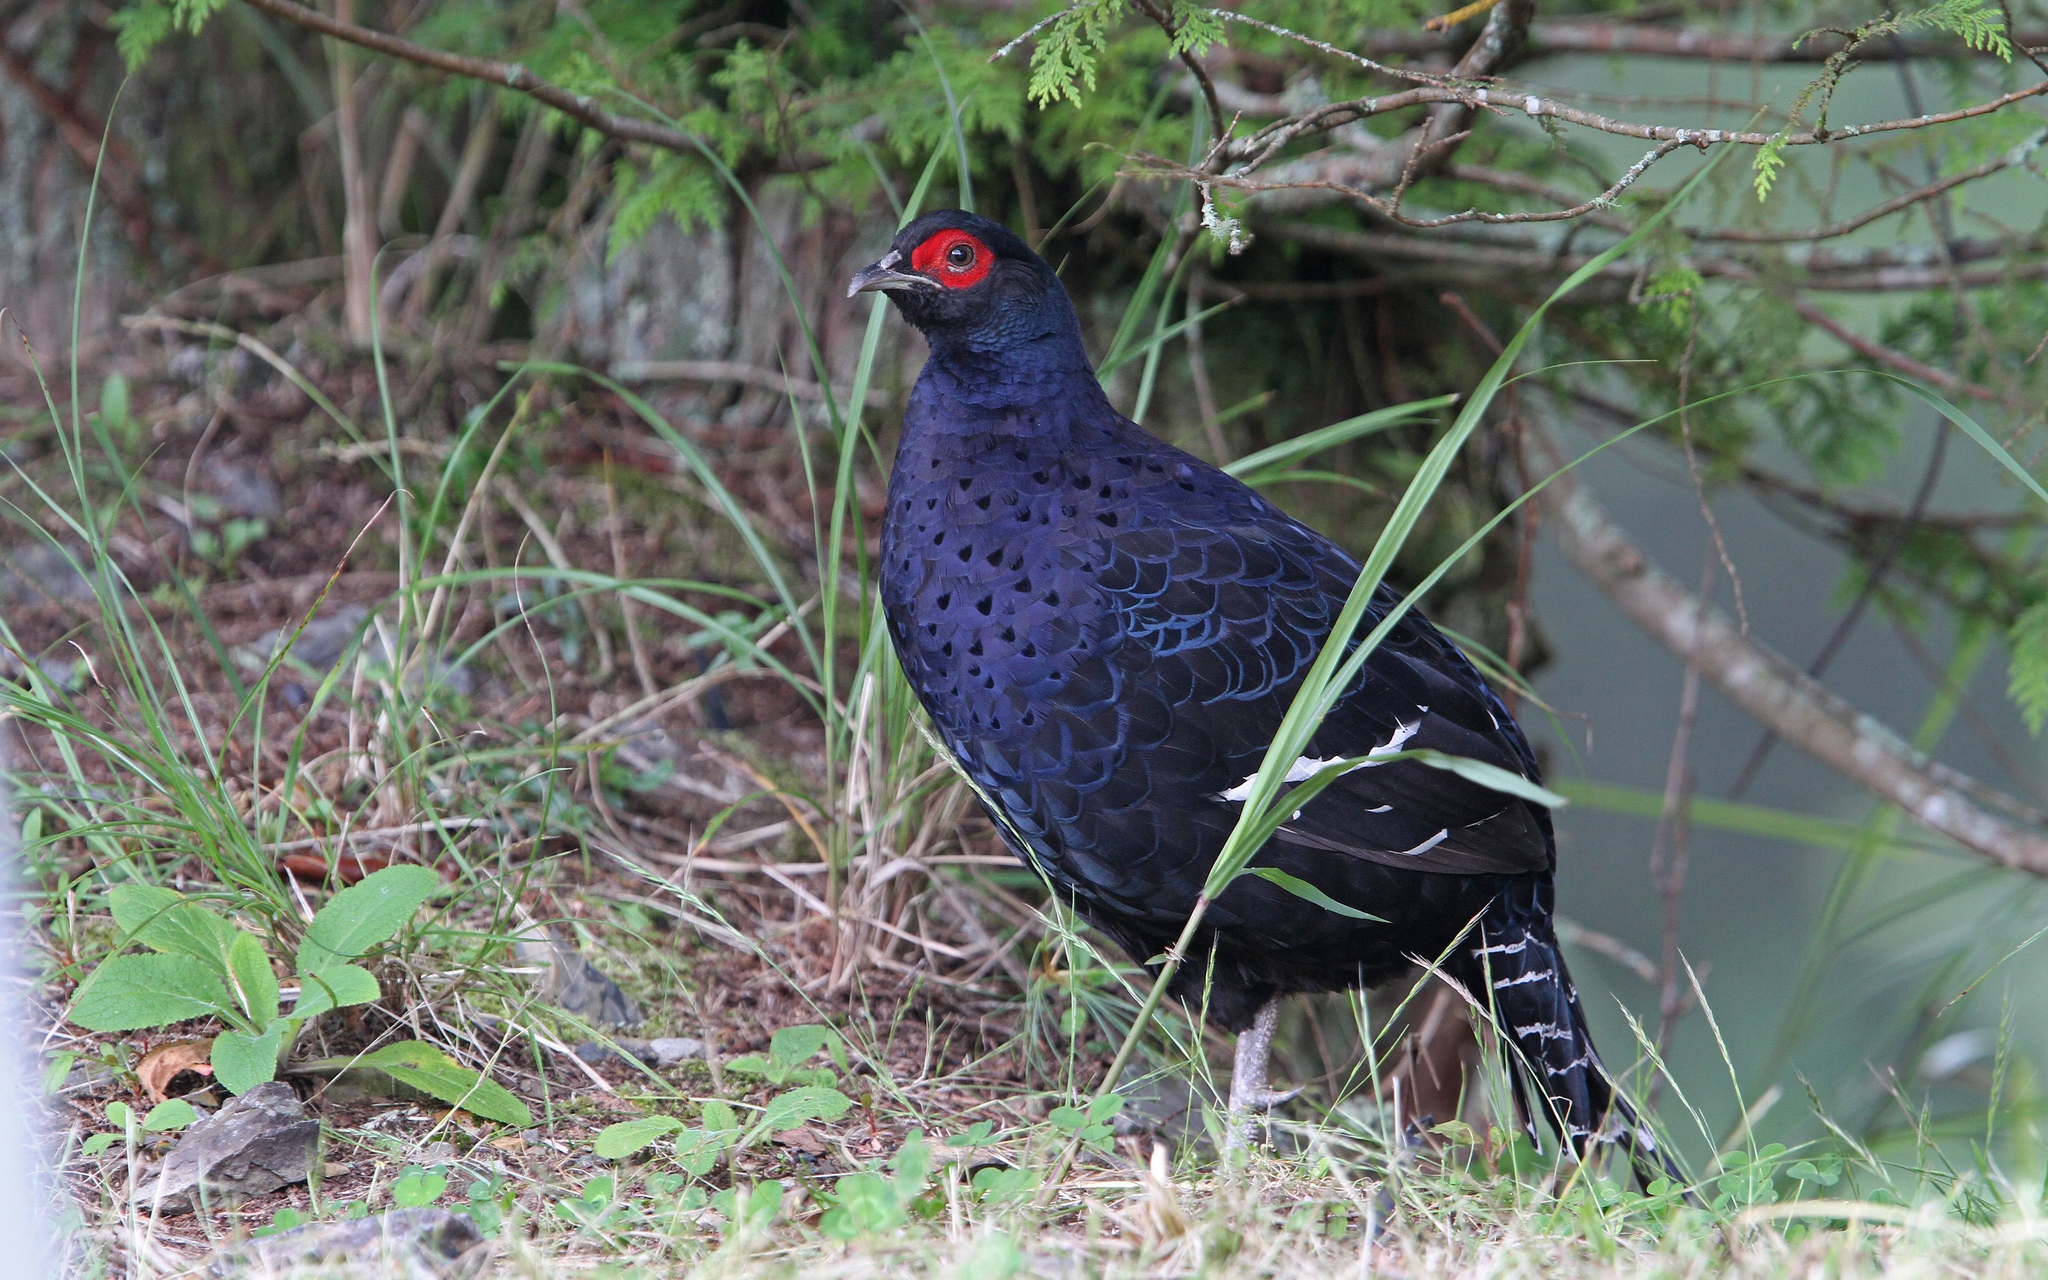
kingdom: Animalia
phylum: Chordata
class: Aves
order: Galliformes
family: Phasianidae
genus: Syrmaticus
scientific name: Syrmaticus mikado
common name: Mikado pheasant
